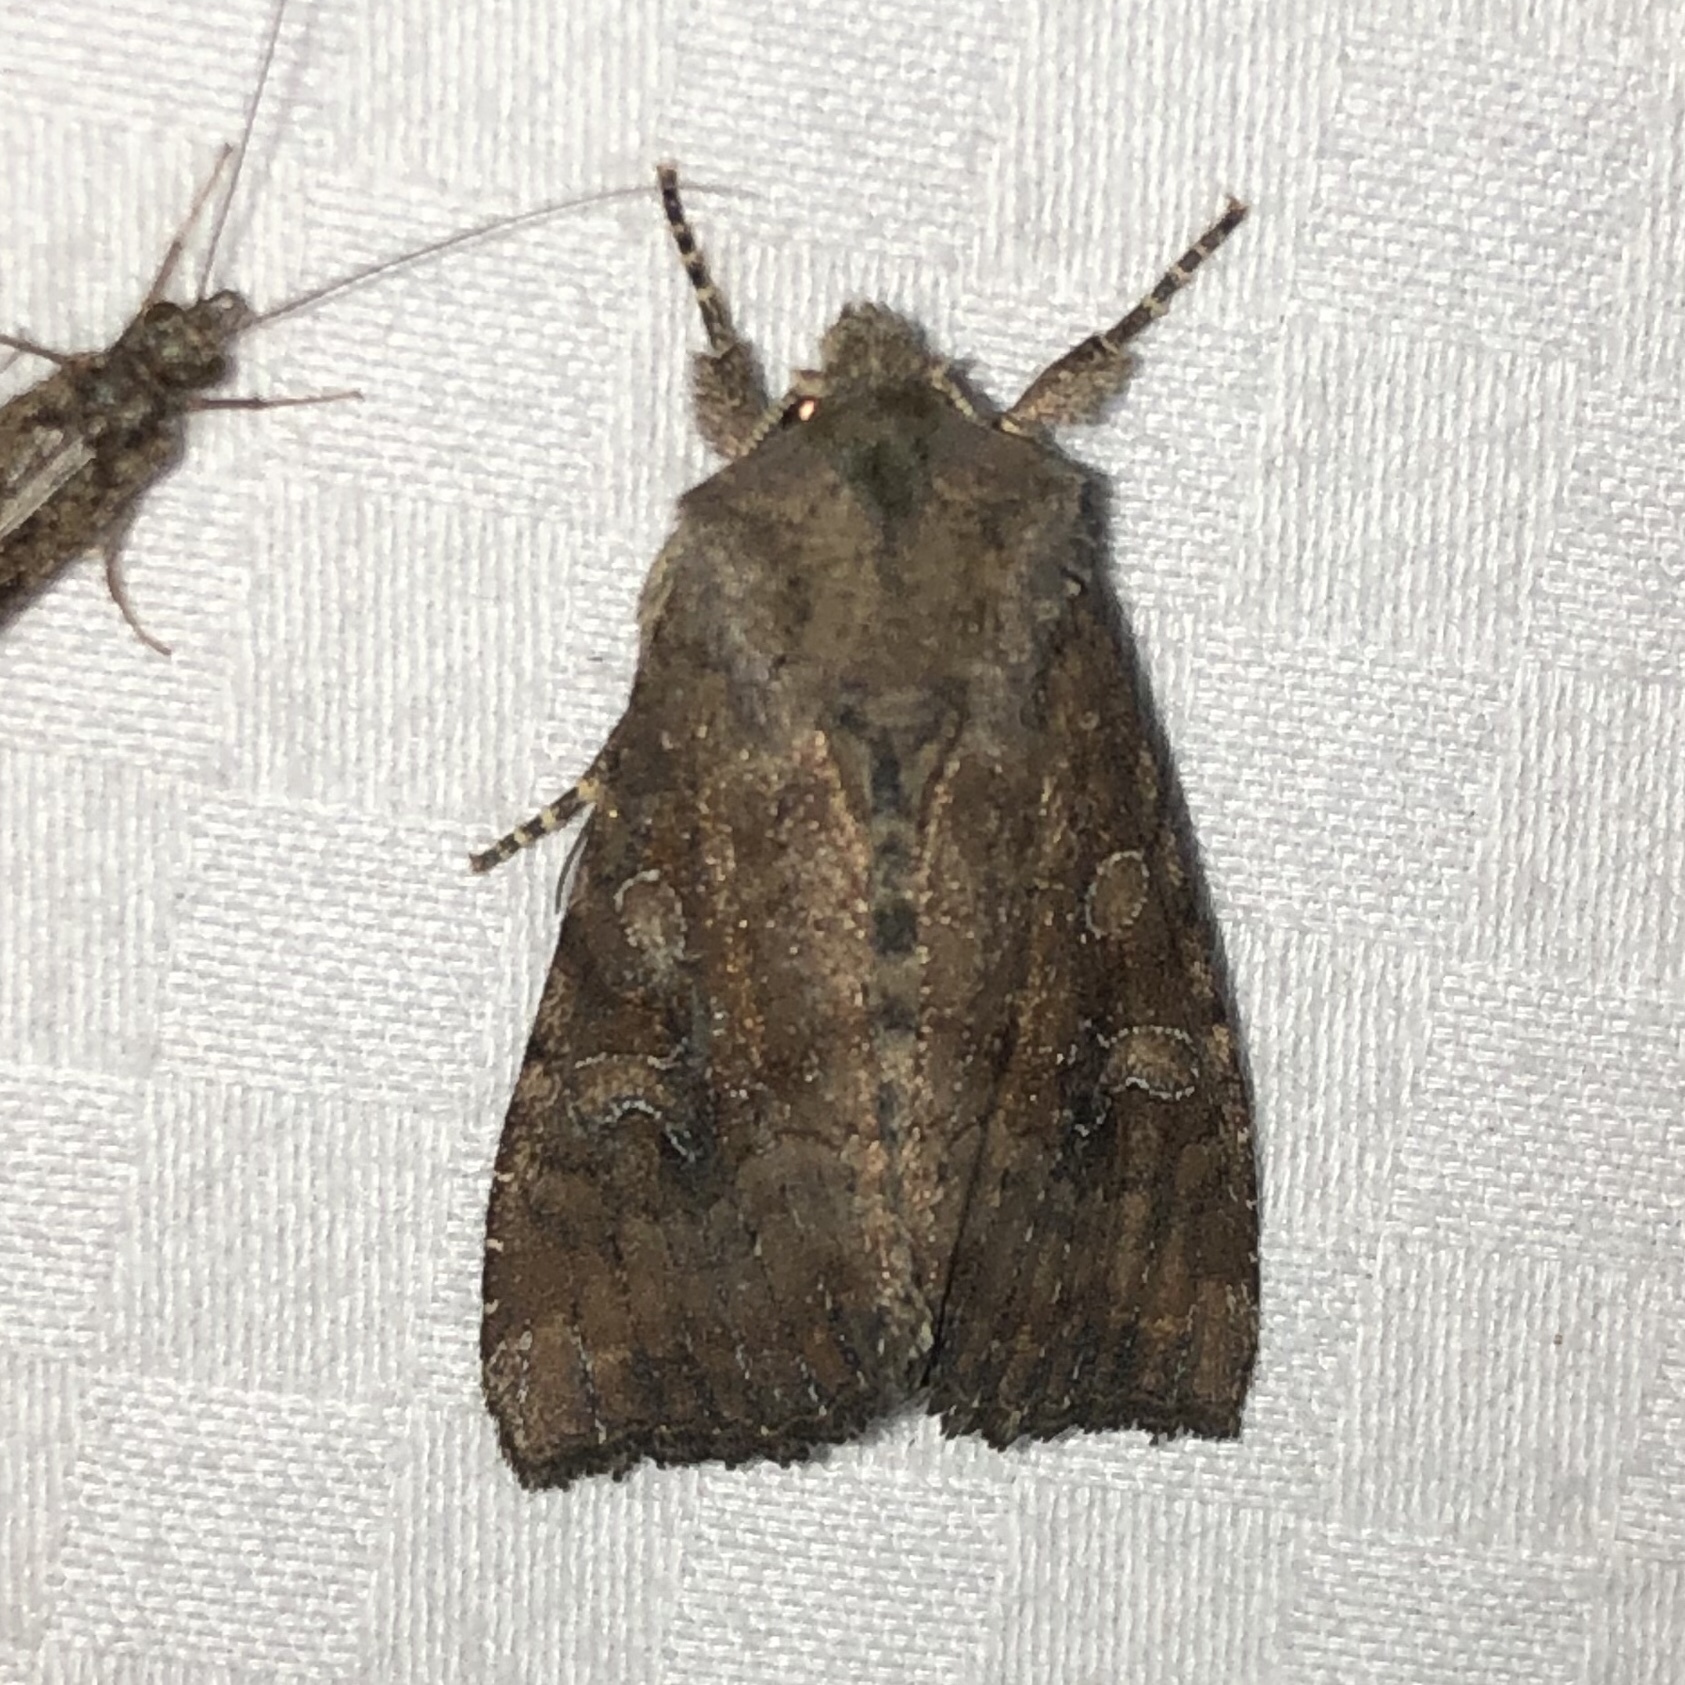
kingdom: Animalia
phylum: Arthropoda
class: Insecta
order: Lepidoptera
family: Noctuidae
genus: Loscopia
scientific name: Loscopia velata
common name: Veiled ear moth
